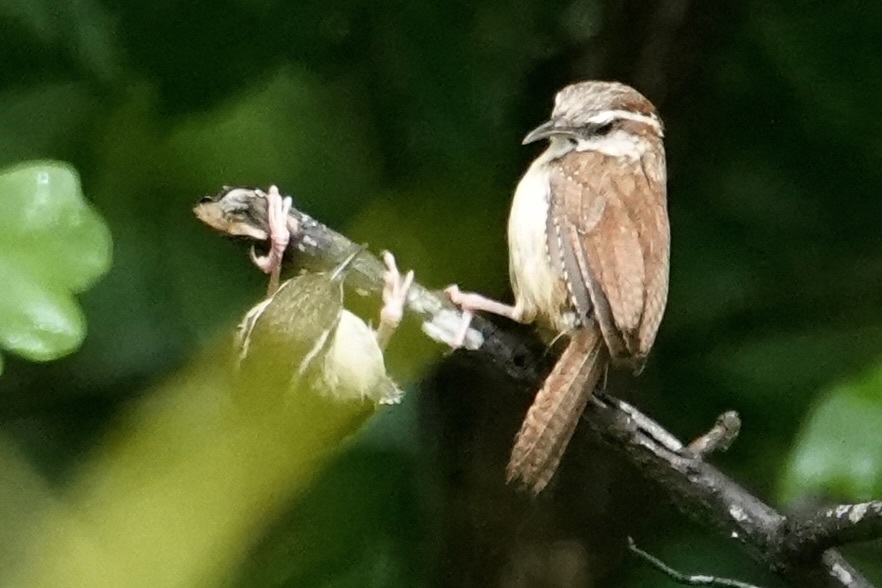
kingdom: Animalia
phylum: Chordata
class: Aves
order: Passeriformes
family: Troglodytidae
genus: Thryothorus
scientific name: Thryothorus ludovicianus
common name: Carolina wren
